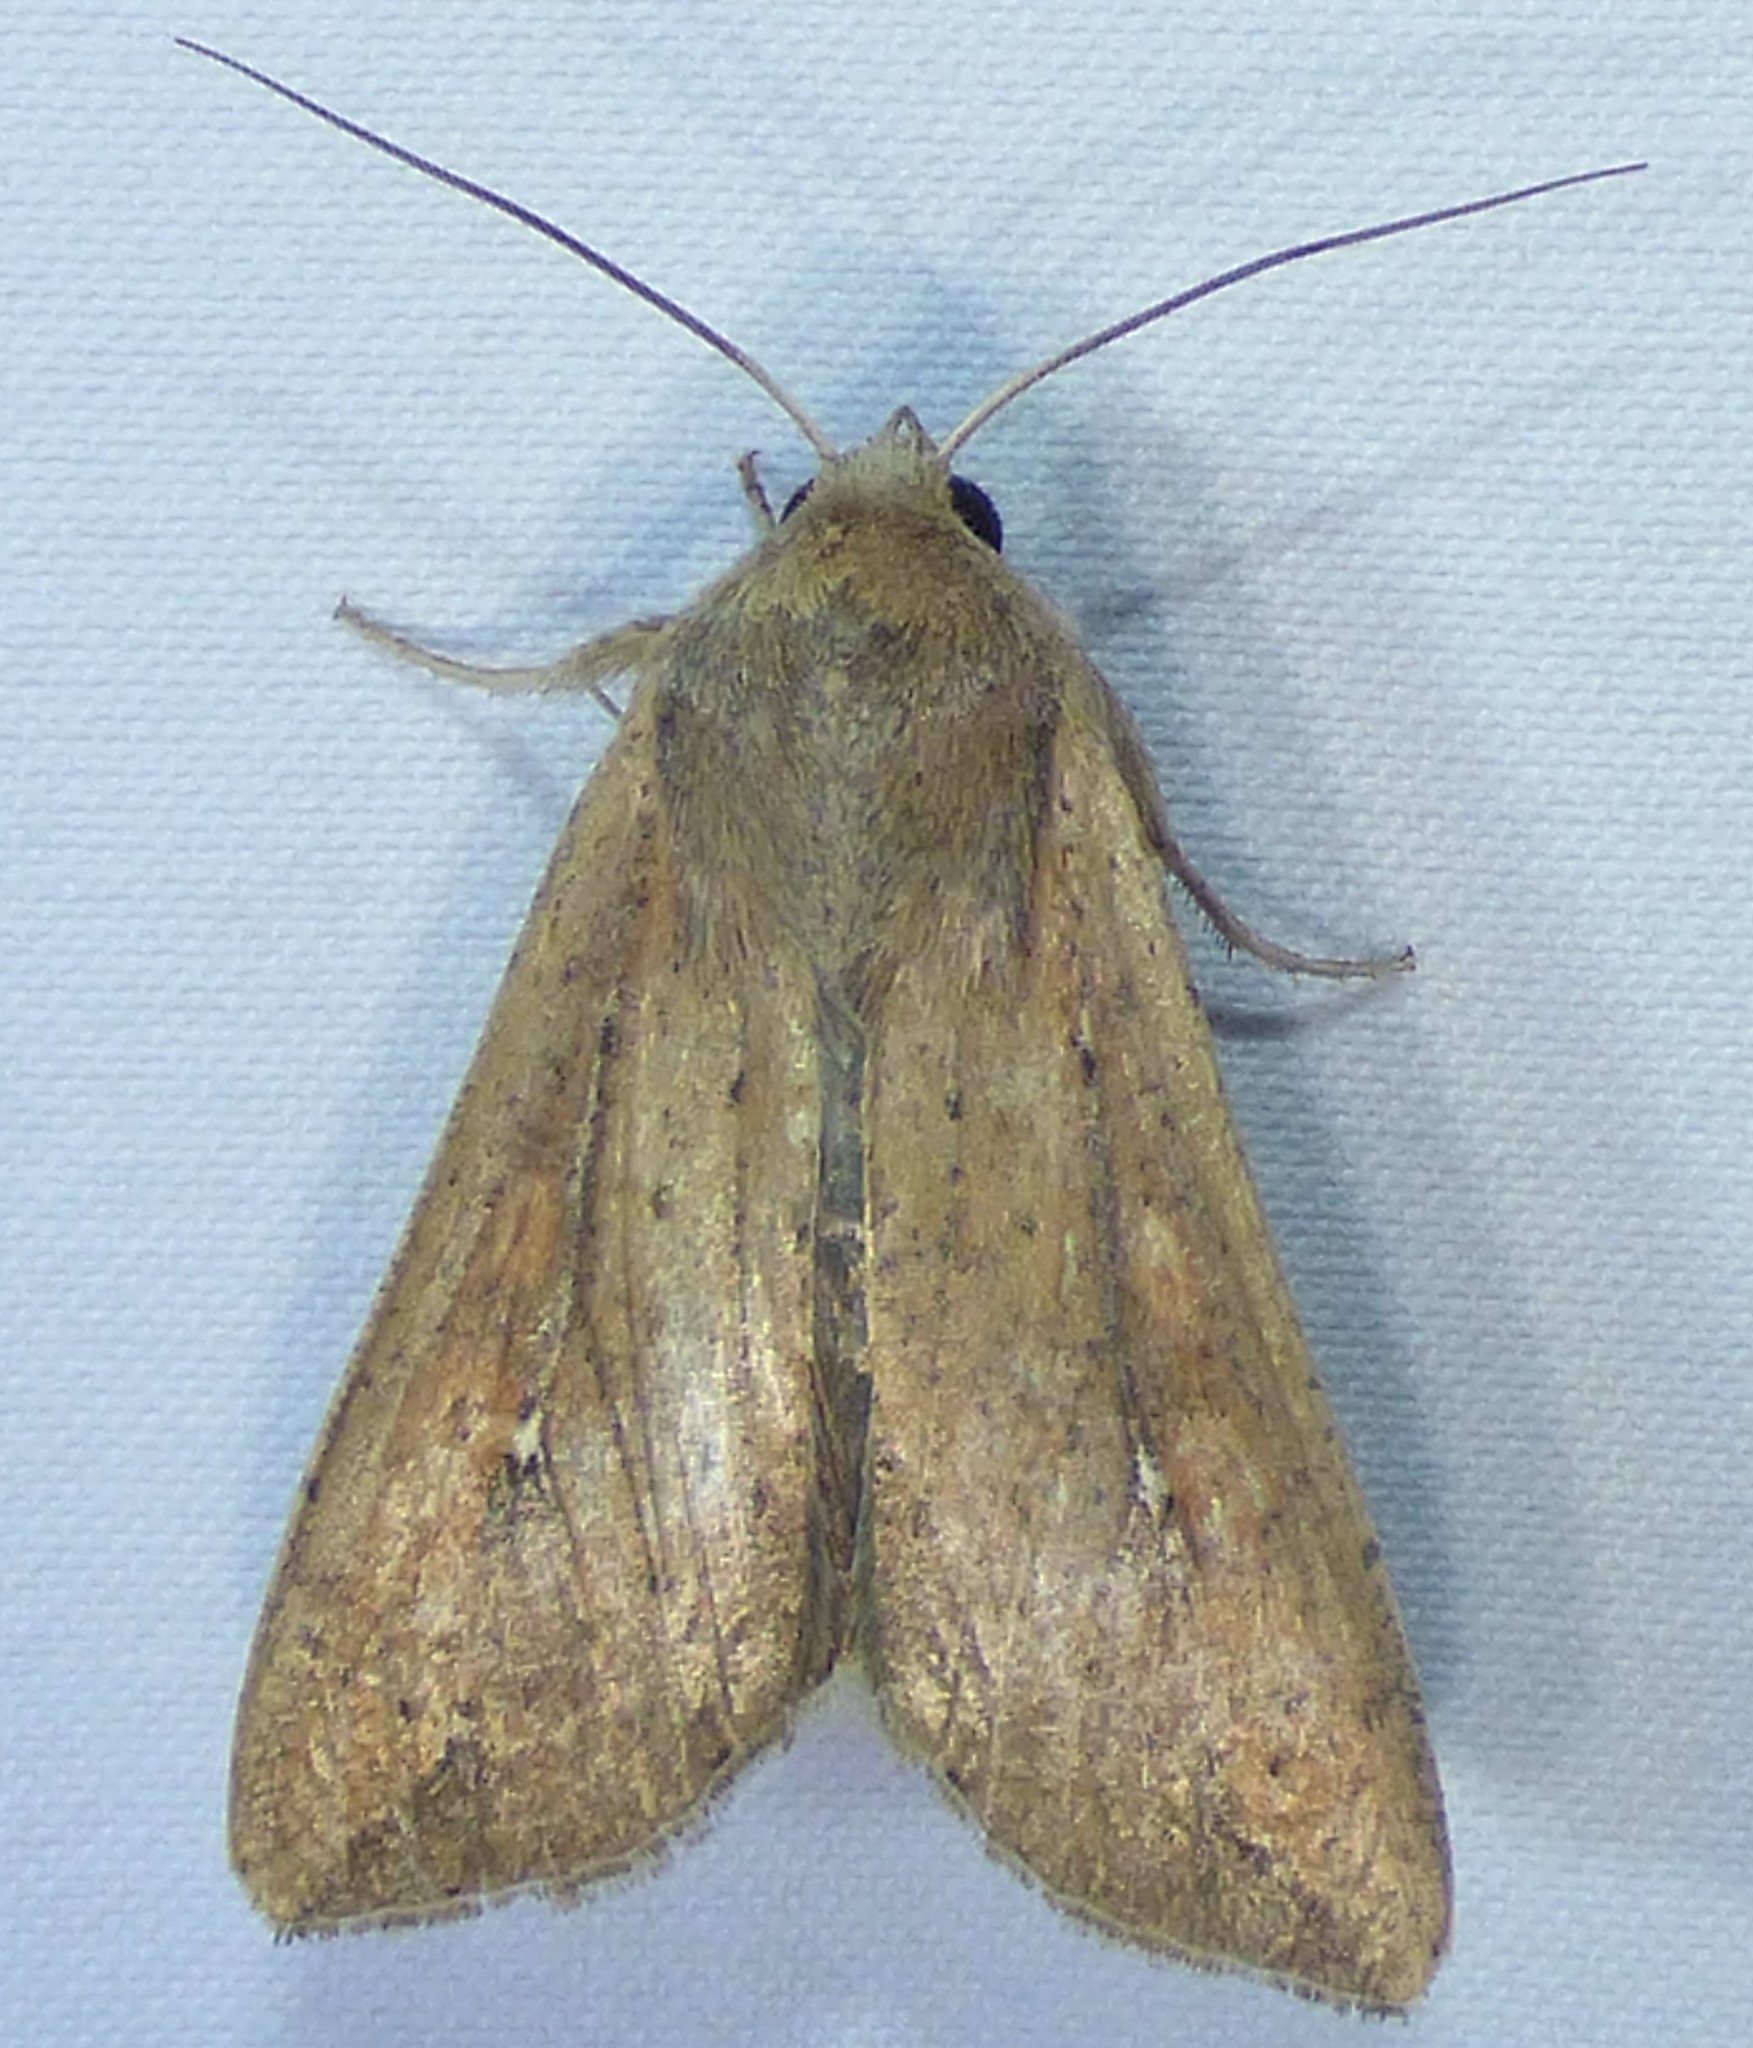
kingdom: Animalia
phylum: Arthropoda
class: Insecta
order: Lepidoptera
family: Noctuidae
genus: Mythimna
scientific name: Mythimna unipuncta
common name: White-speck
